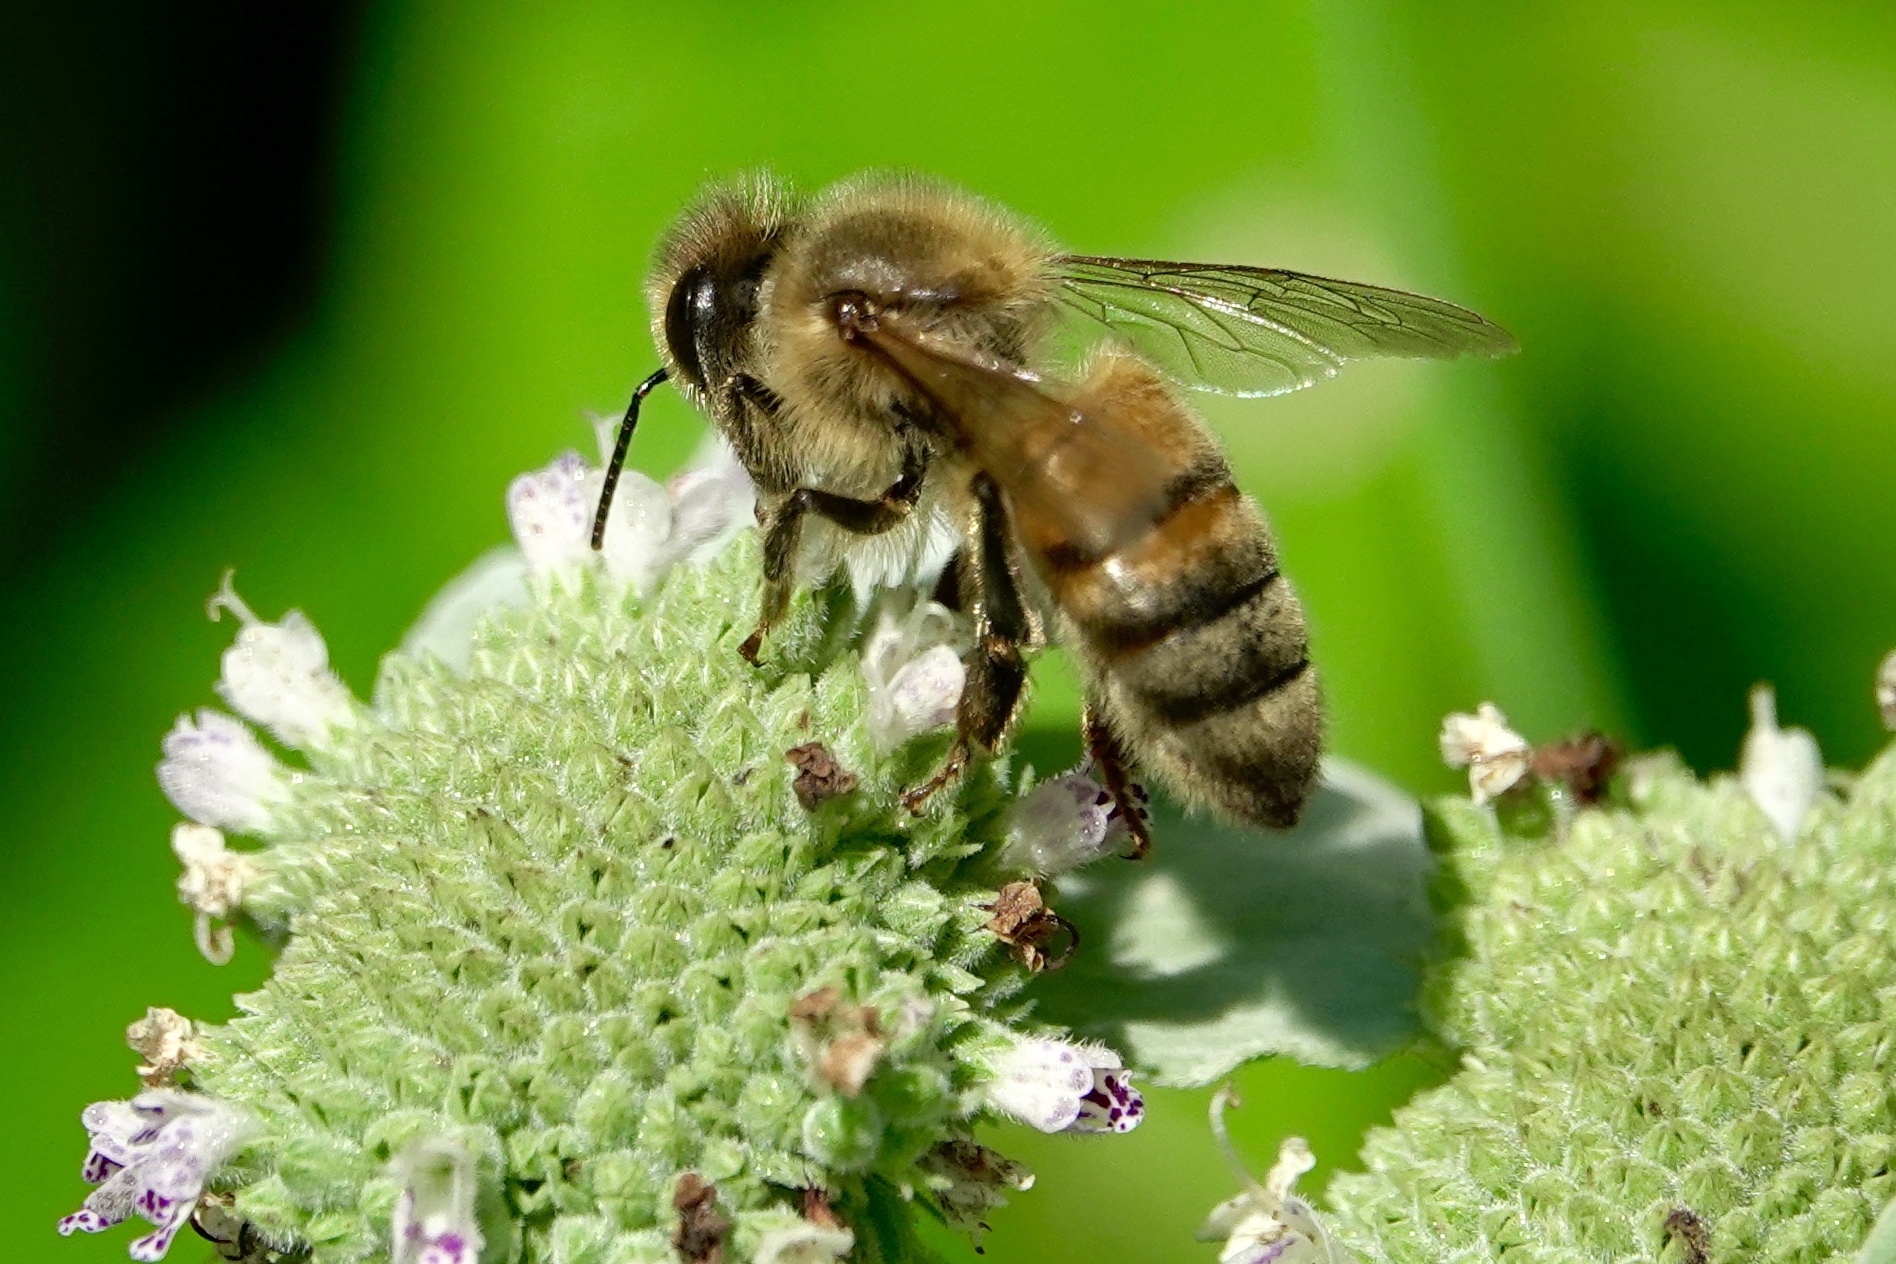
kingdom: Animalia
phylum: Arthropoda
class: Insecta
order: Hymenoptera
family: Apidae
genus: Apis
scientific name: Apis mellifera
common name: Honey bee
